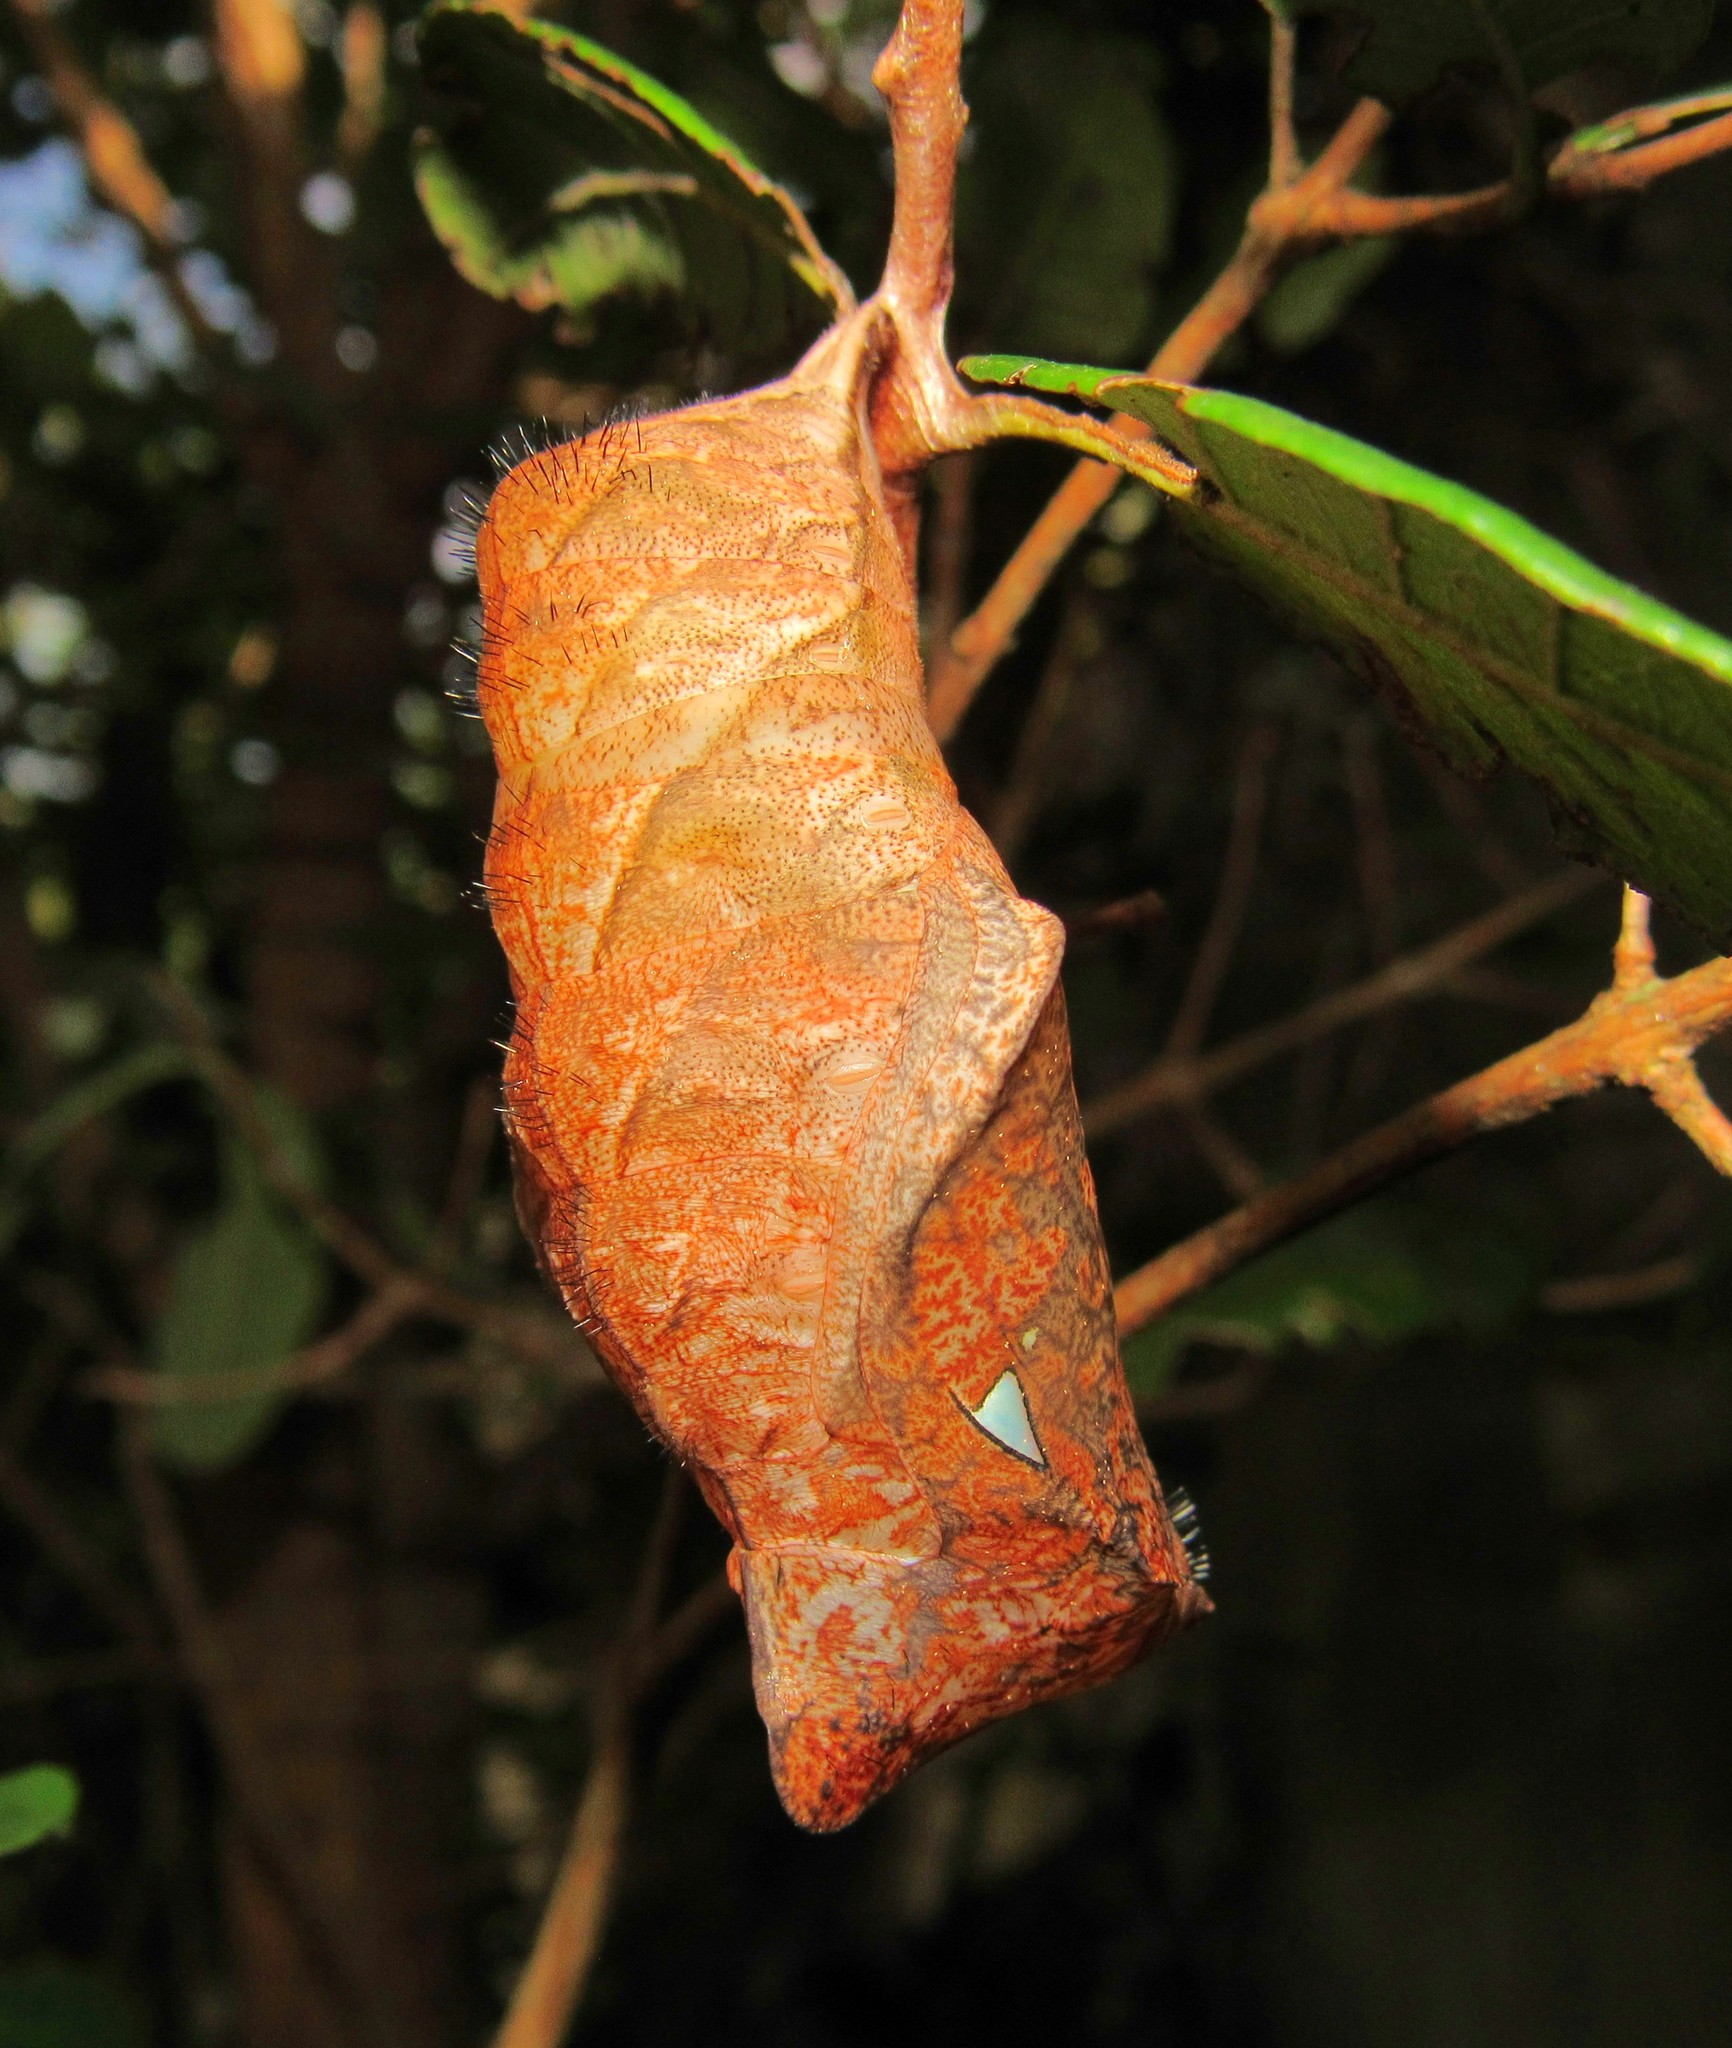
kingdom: Animalia
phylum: Arthropoda
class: Insecta
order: Lepidoptera
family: Nymphalidae
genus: Caligo
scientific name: Caligo brasiliensis
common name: Dark owl-butterfly
